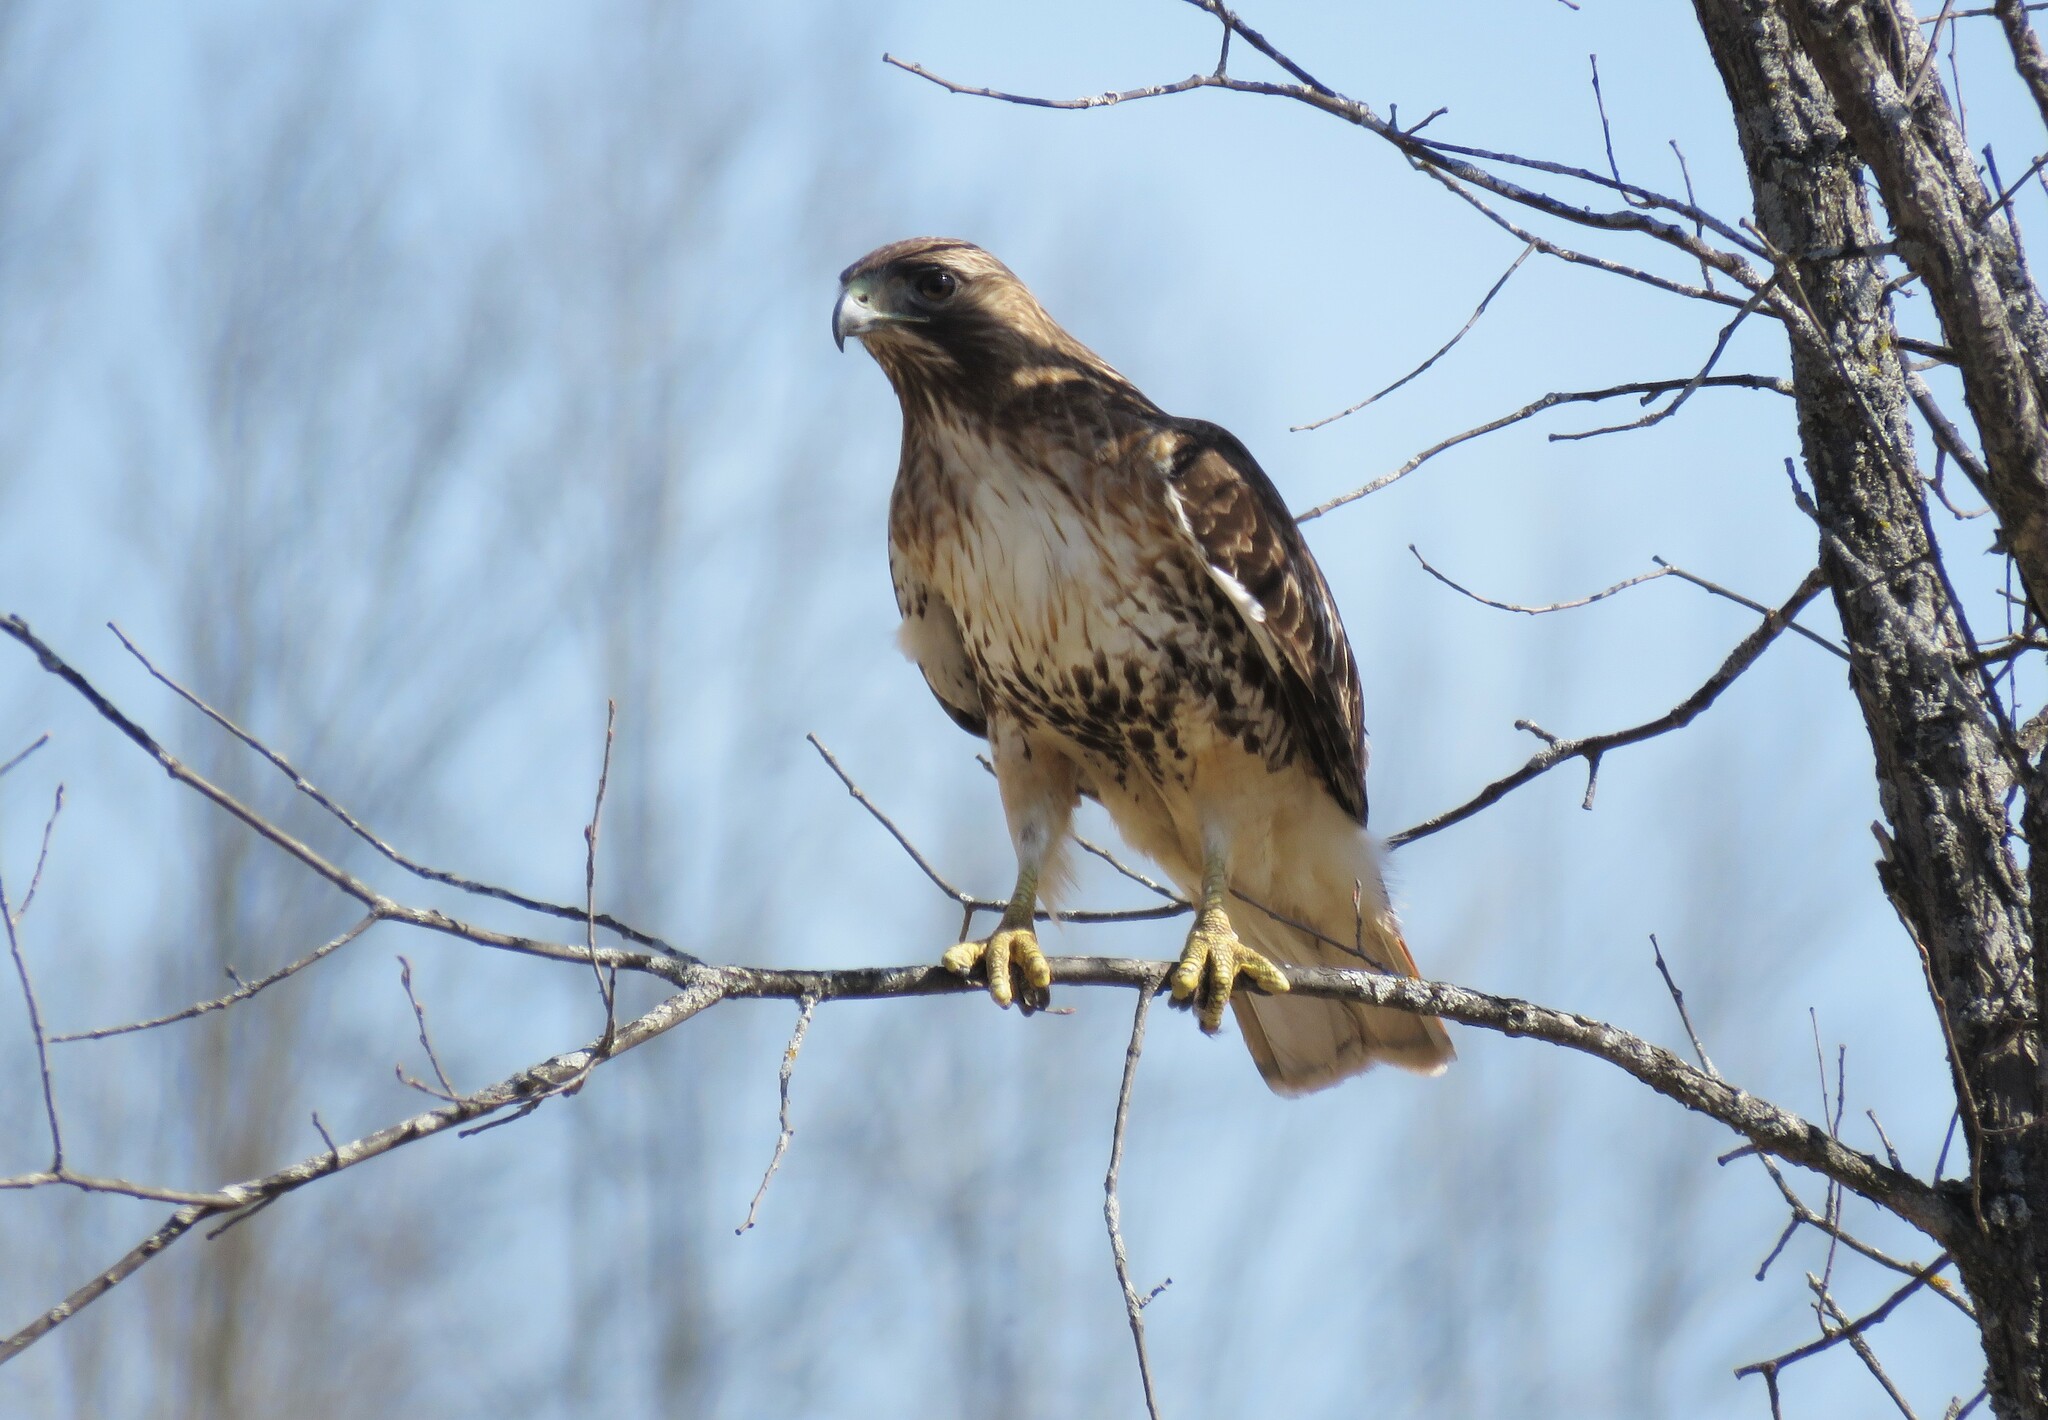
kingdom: Animalia
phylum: Chordata
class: Aves
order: Accipitriformes
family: Accipitridae
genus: Buteo
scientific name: Buteo jamaicensis
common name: Red-tailed hawk
